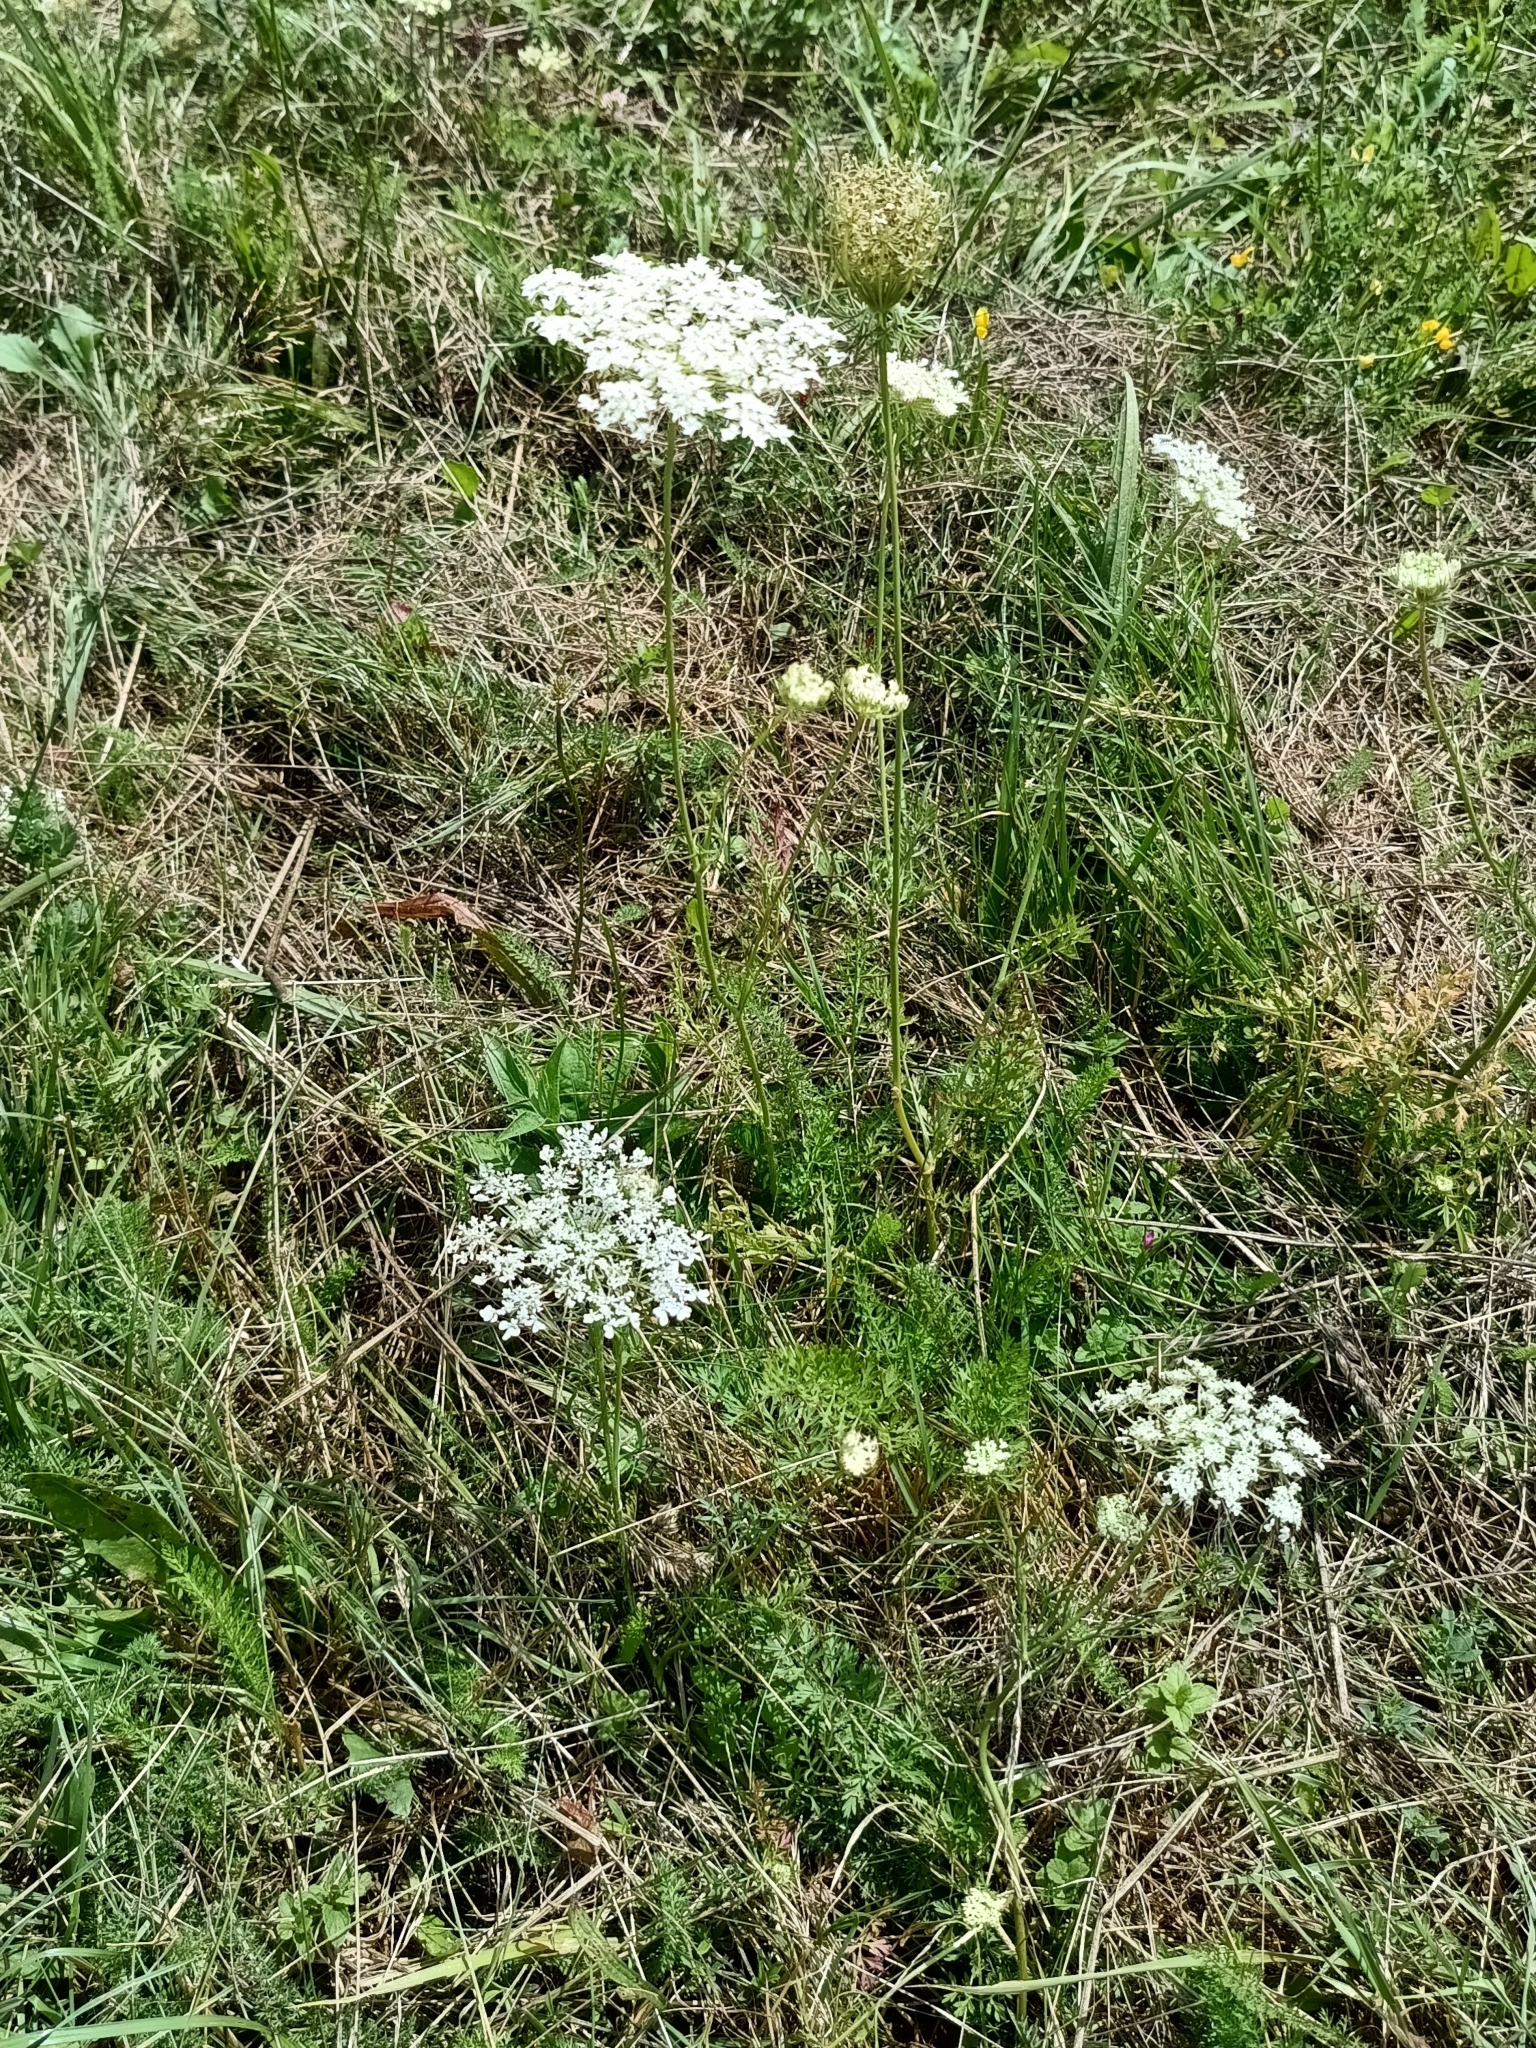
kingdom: Plantae
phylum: Tracheophyta
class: Magnoliopsida
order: Apiales
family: Apiaceae
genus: Daucus
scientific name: Daucus carota
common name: Wild carrot
